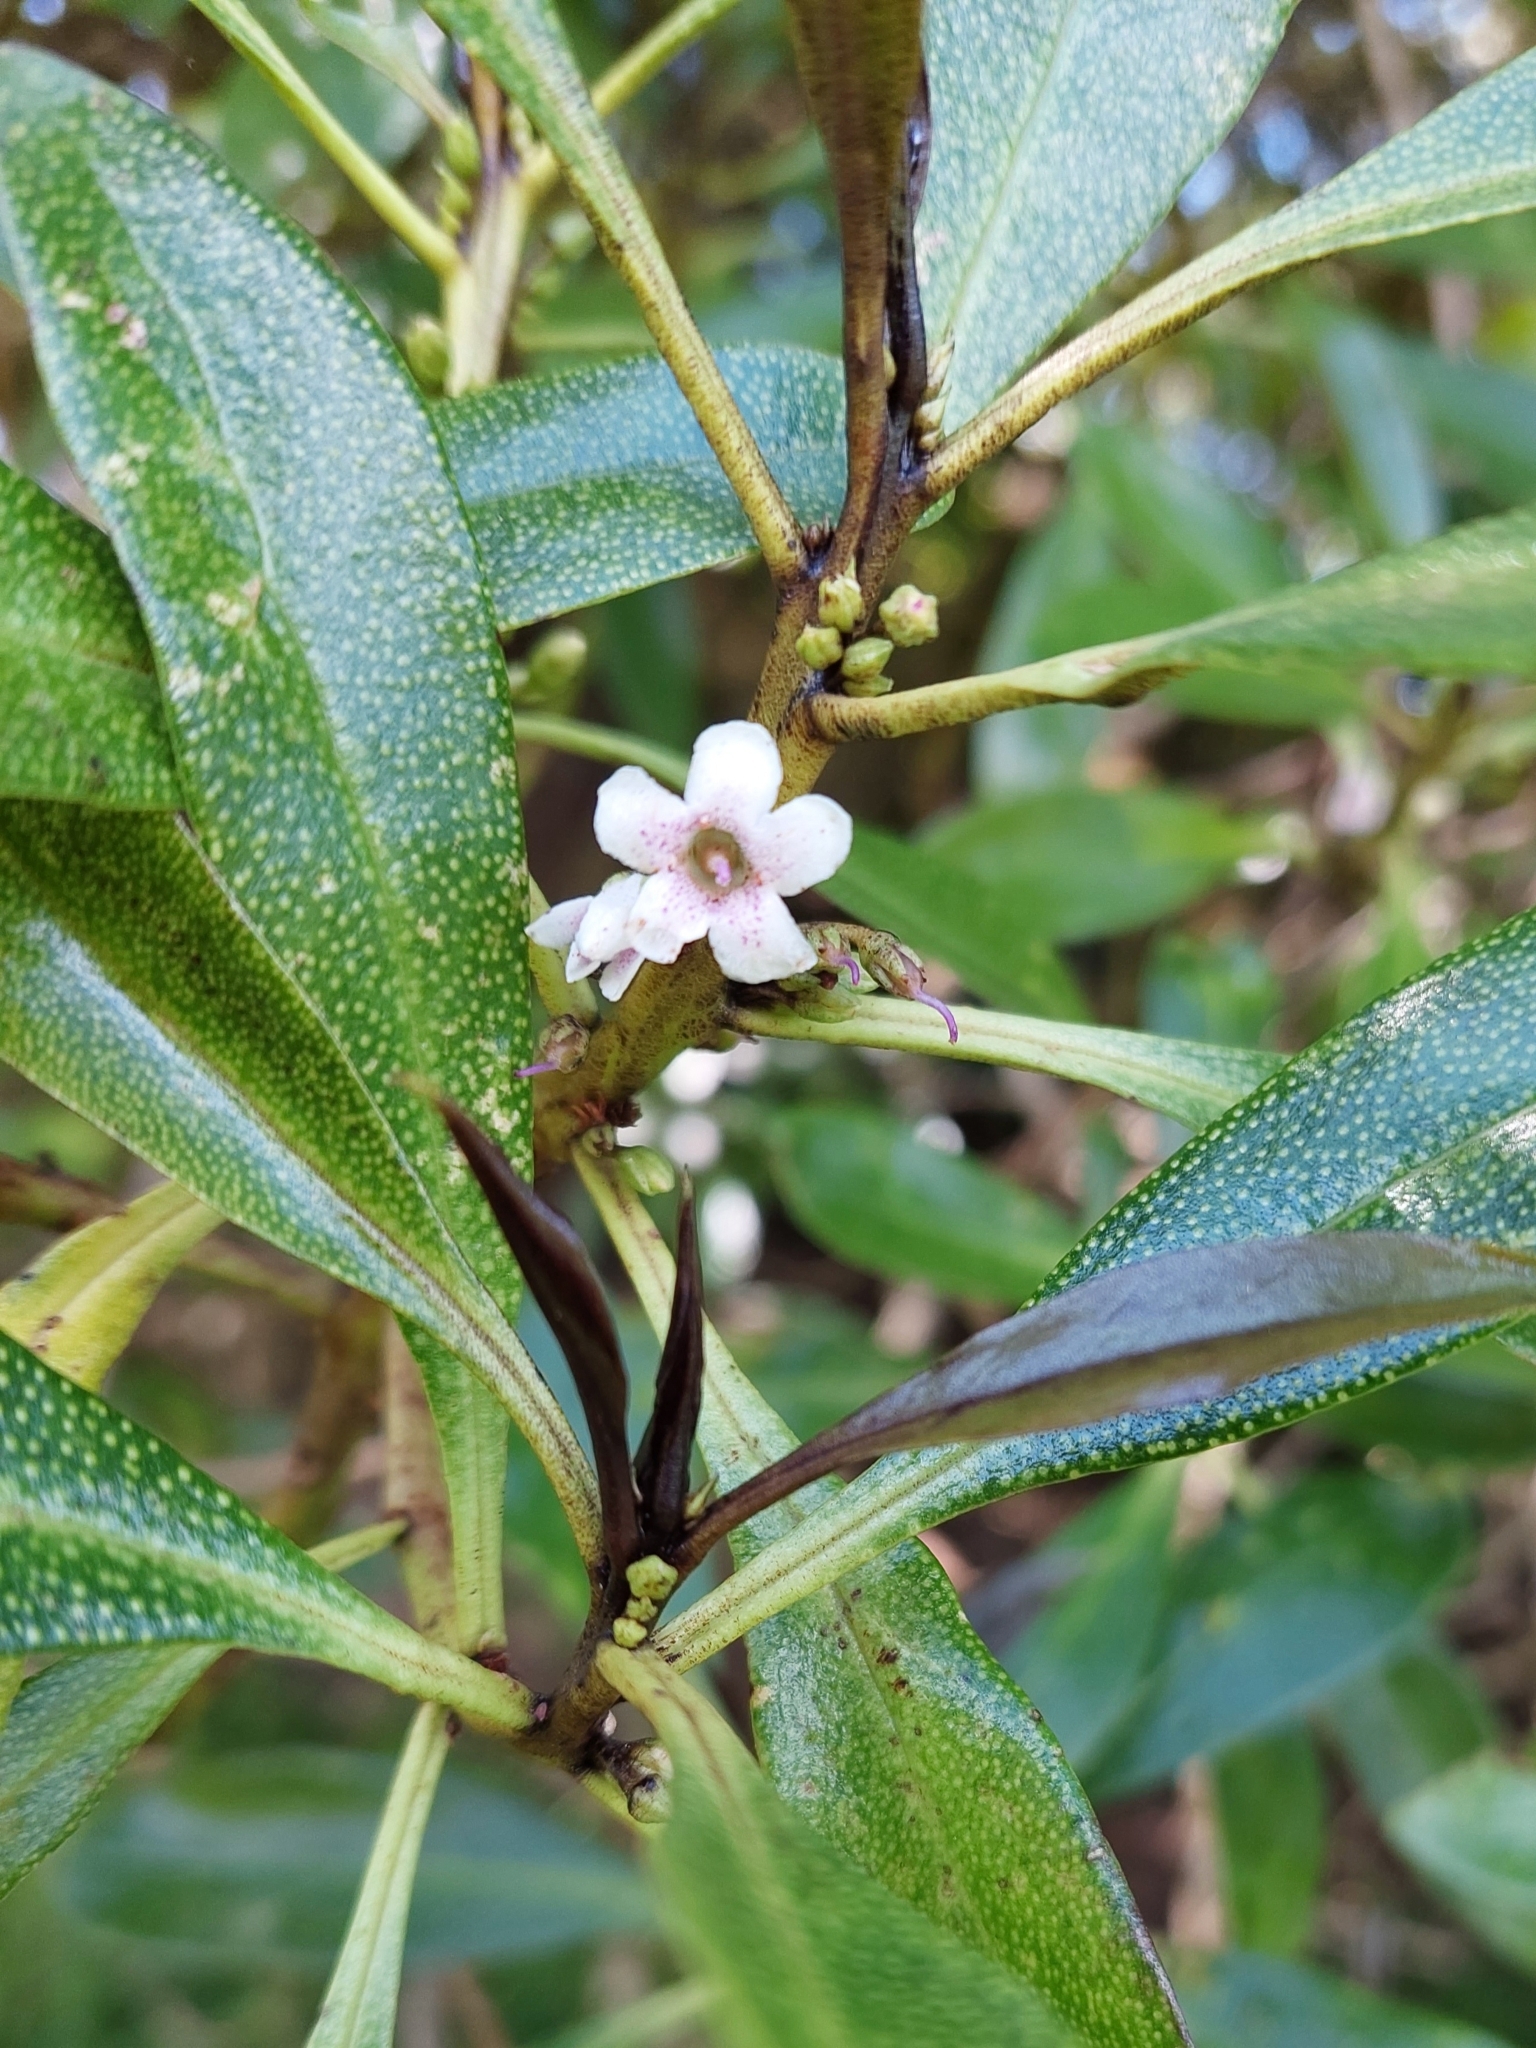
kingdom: Plantae
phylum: Tracheophyta
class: Magnoliopsida
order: Lamiales
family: Scrophulariaceae
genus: Myoporum
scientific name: Myoporum laetum
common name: Ngaio tree
